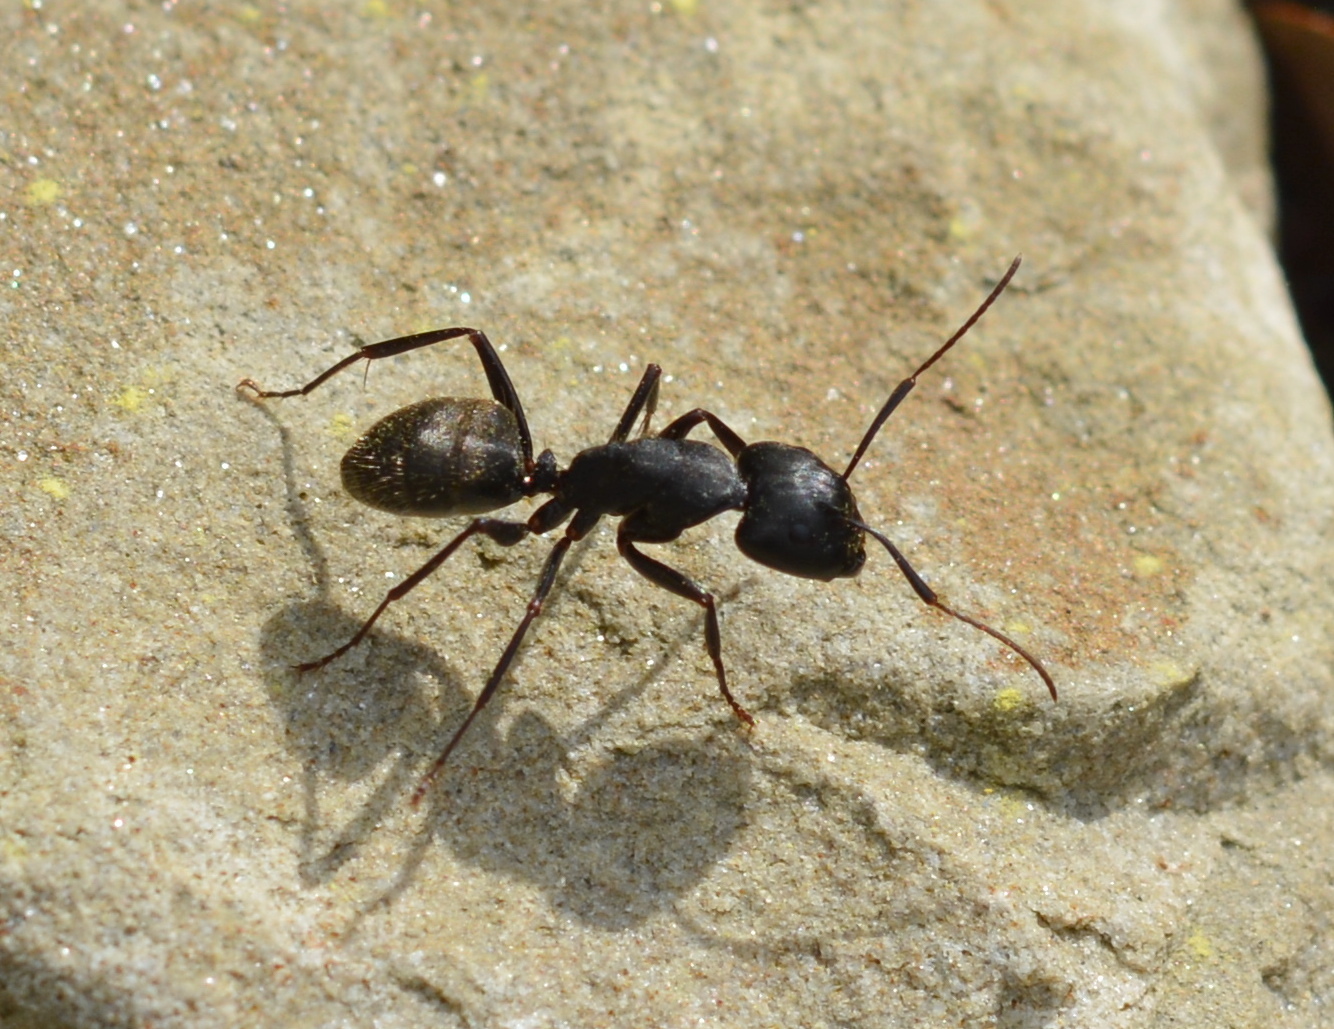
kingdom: Animalia
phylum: Arthropoda
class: Insecta
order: Hymenoptera
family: Formicidae
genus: Camponotus
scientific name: Camponotus pennsylvanicus
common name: Black carpenter ant
